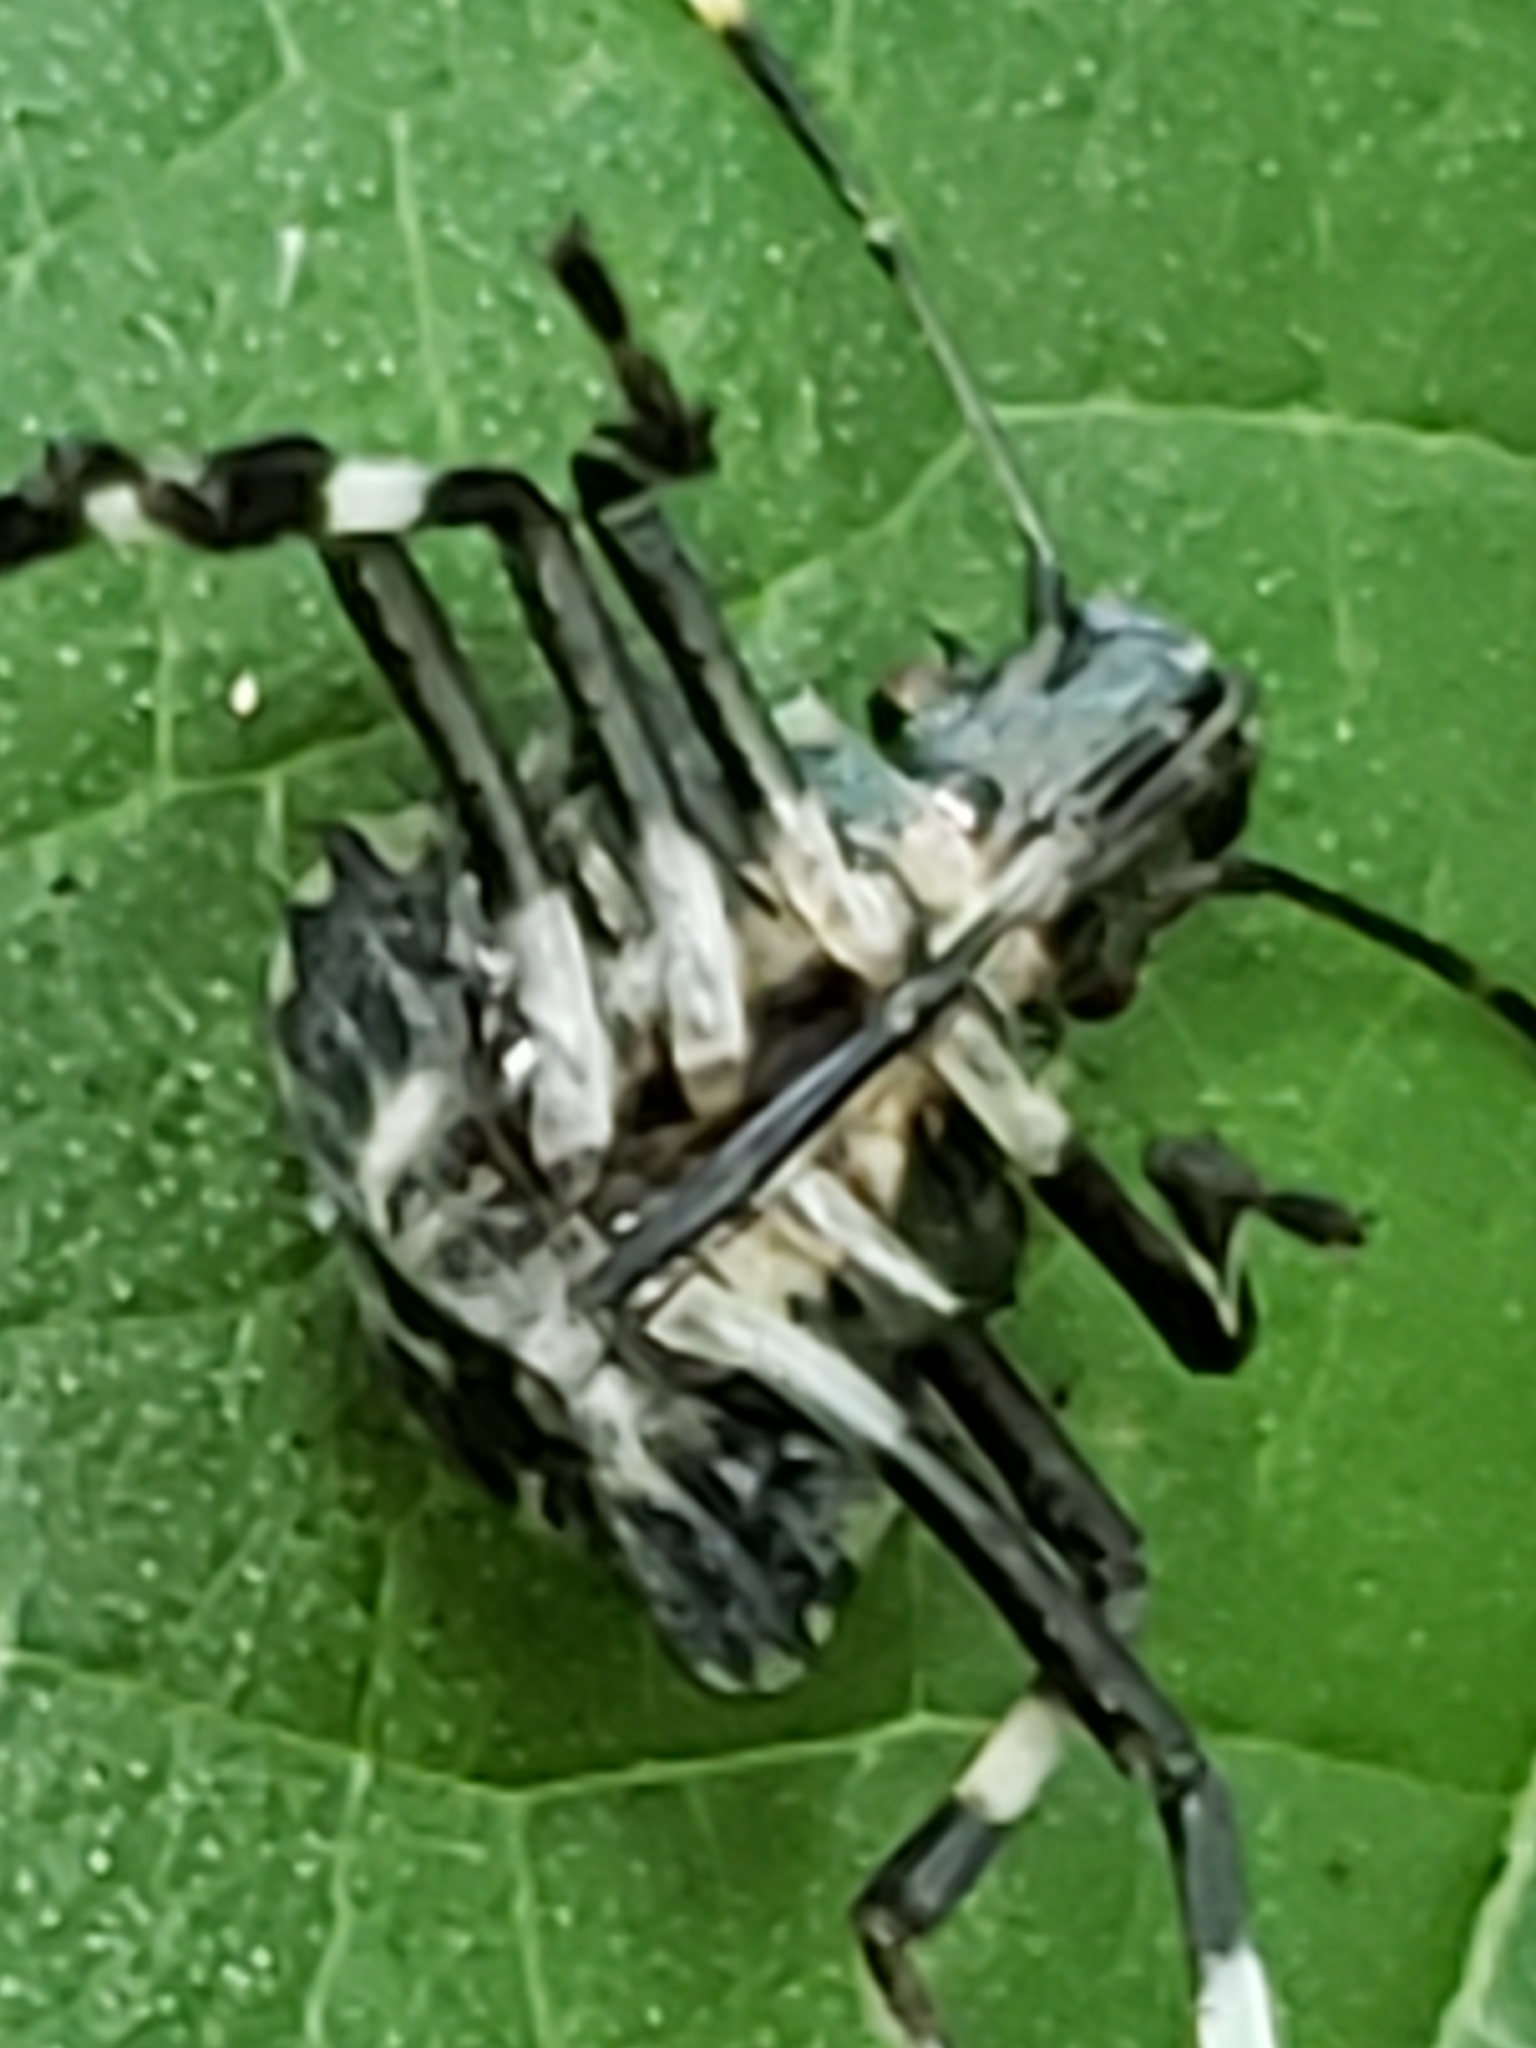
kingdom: Animalia
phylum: Arthropoda
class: Insecta
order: Hemiptera
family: Pentatomidae
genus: Halyomorpha
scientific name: Halyomorpha halys
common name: Brown marmorated stink bug
